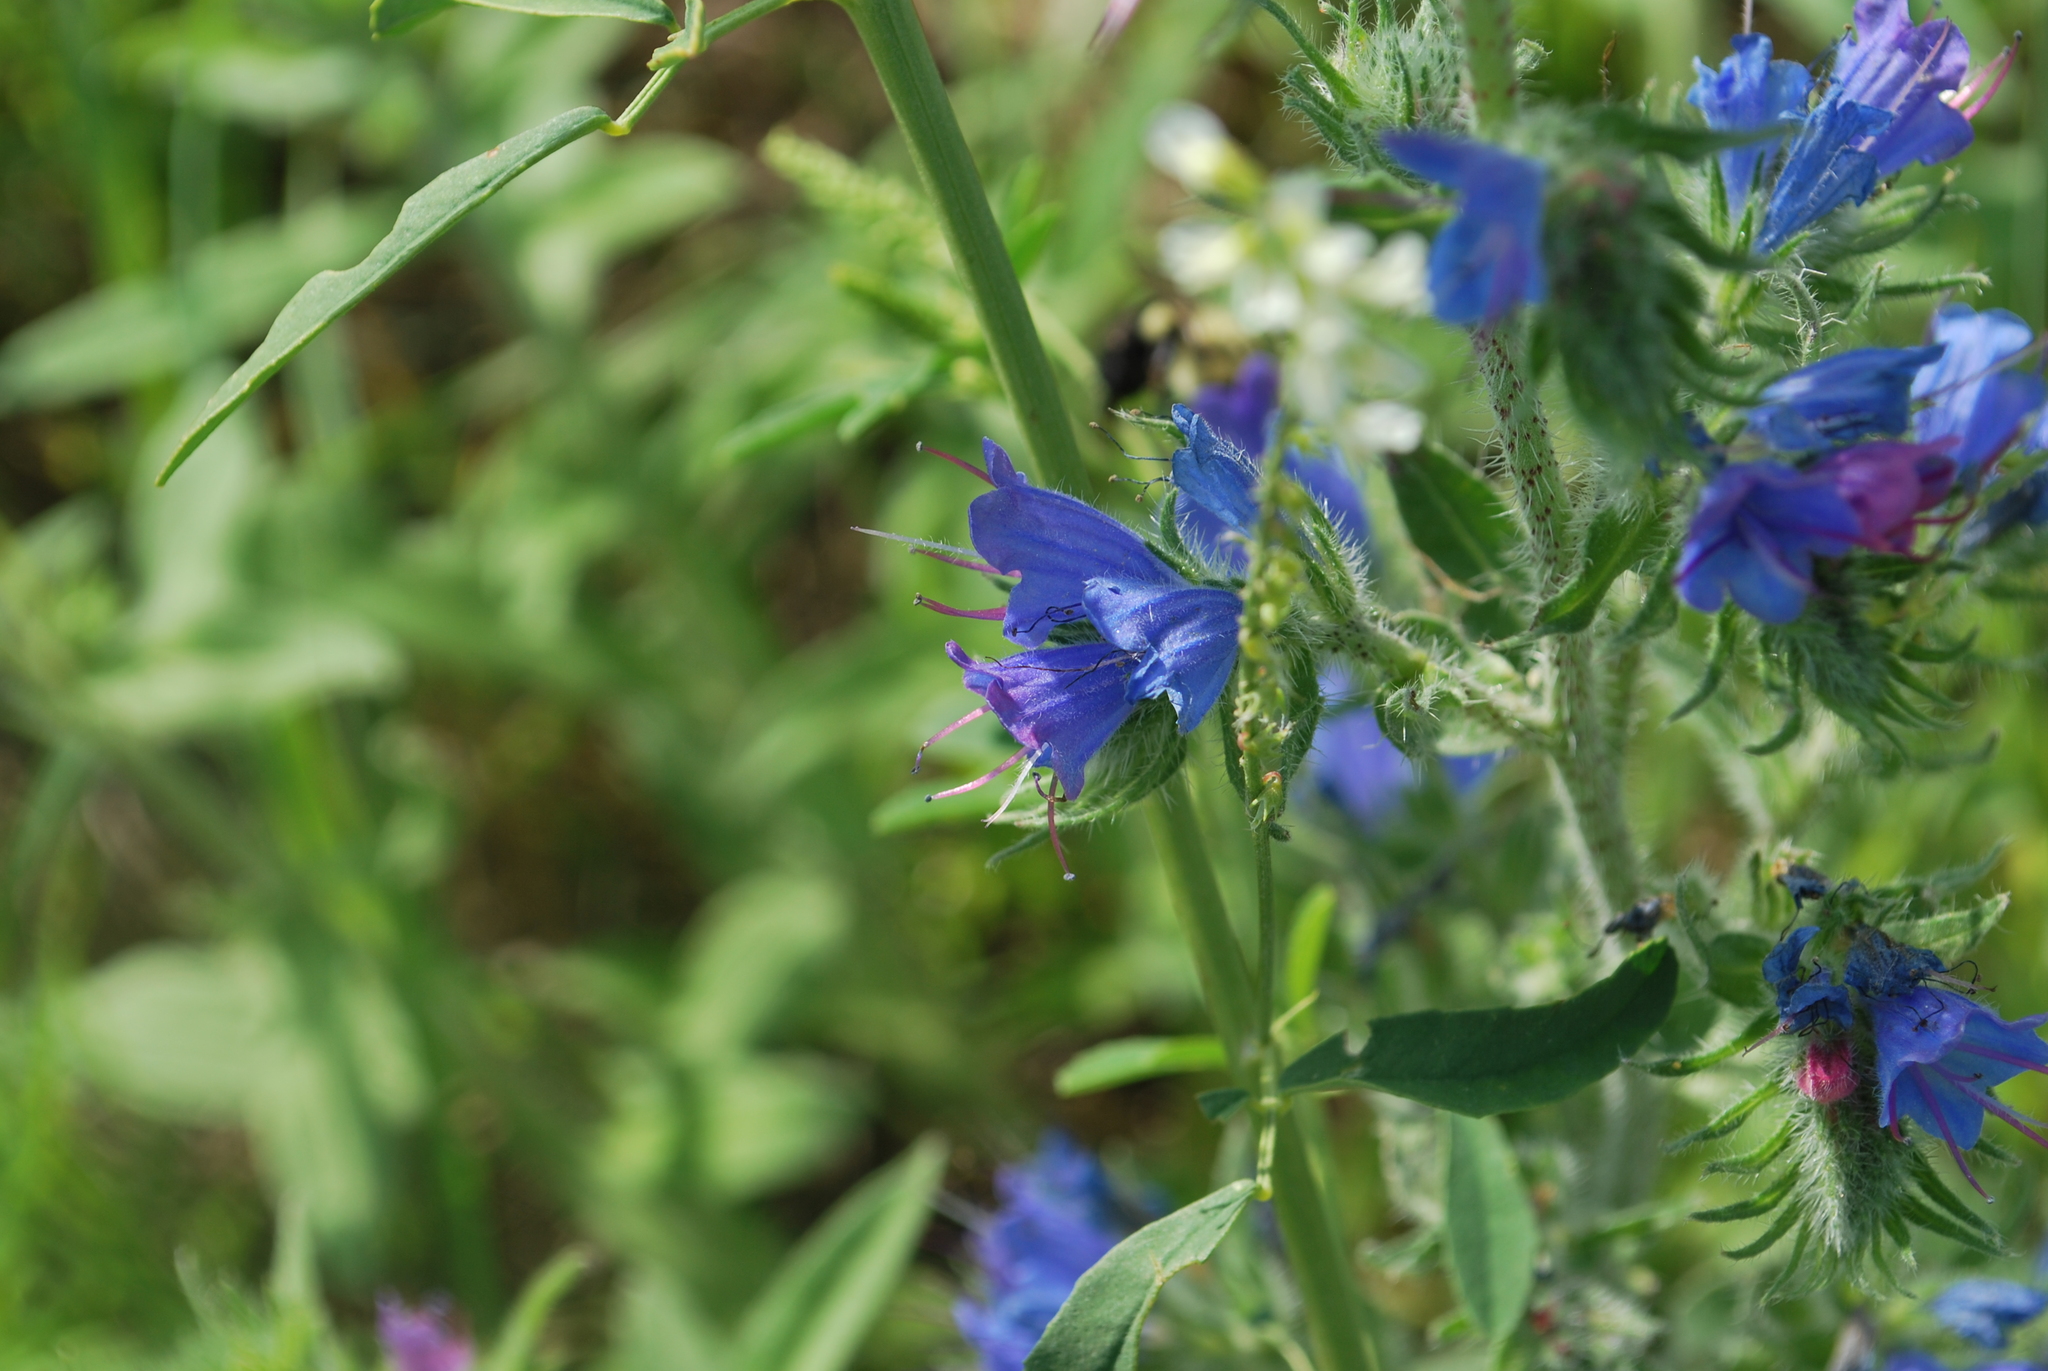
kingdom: Plantae
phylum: Tracheophyta
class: Magnoliopsida
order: Boraginales
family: Boraginaceae
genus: Echium
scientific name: Echium vulgare
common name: Common viper's bugloss
